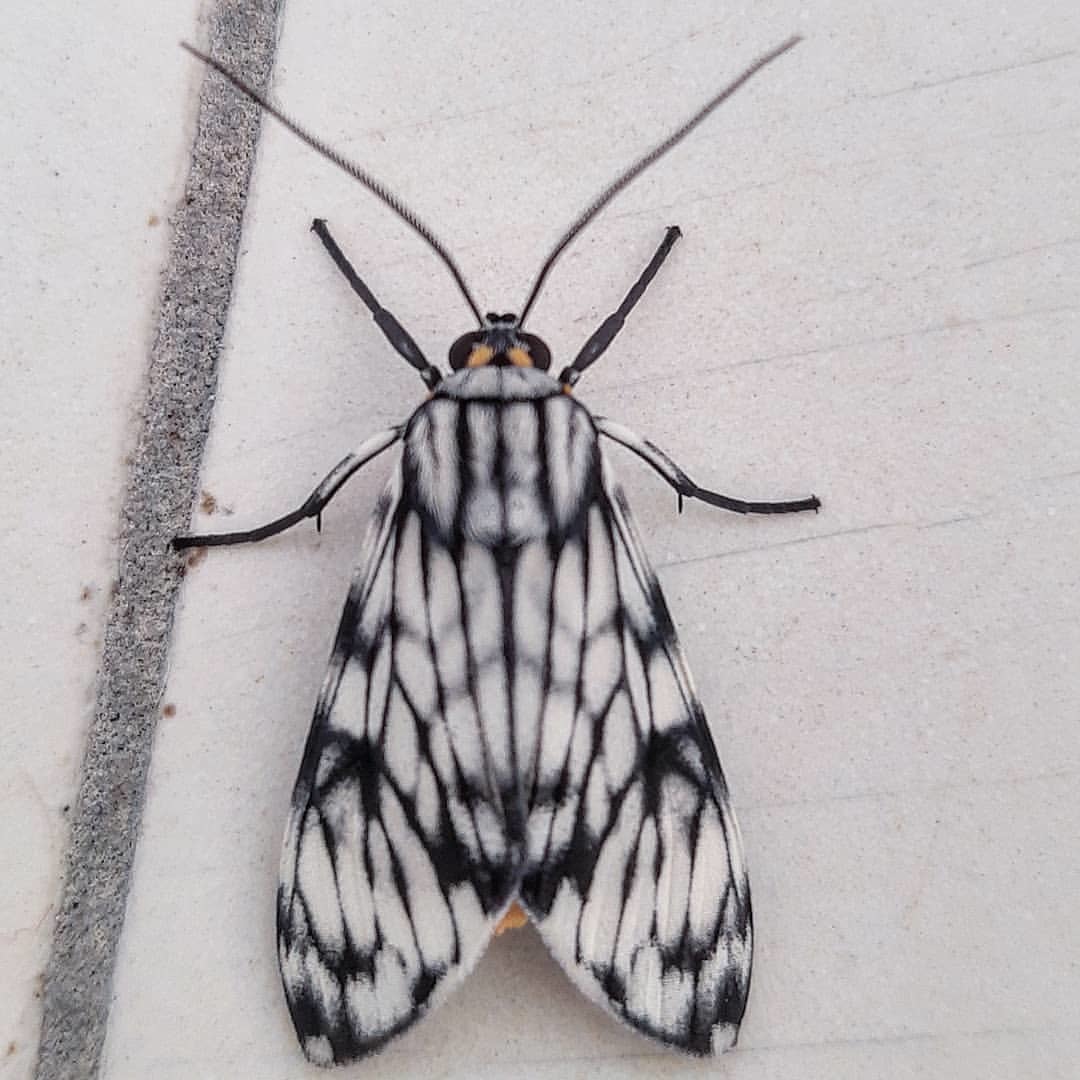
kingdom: Animalia
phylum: Arthropoda
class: Insecta
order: Lepidoptera
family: Erebidae
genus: Theages
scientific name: Theages xantura
